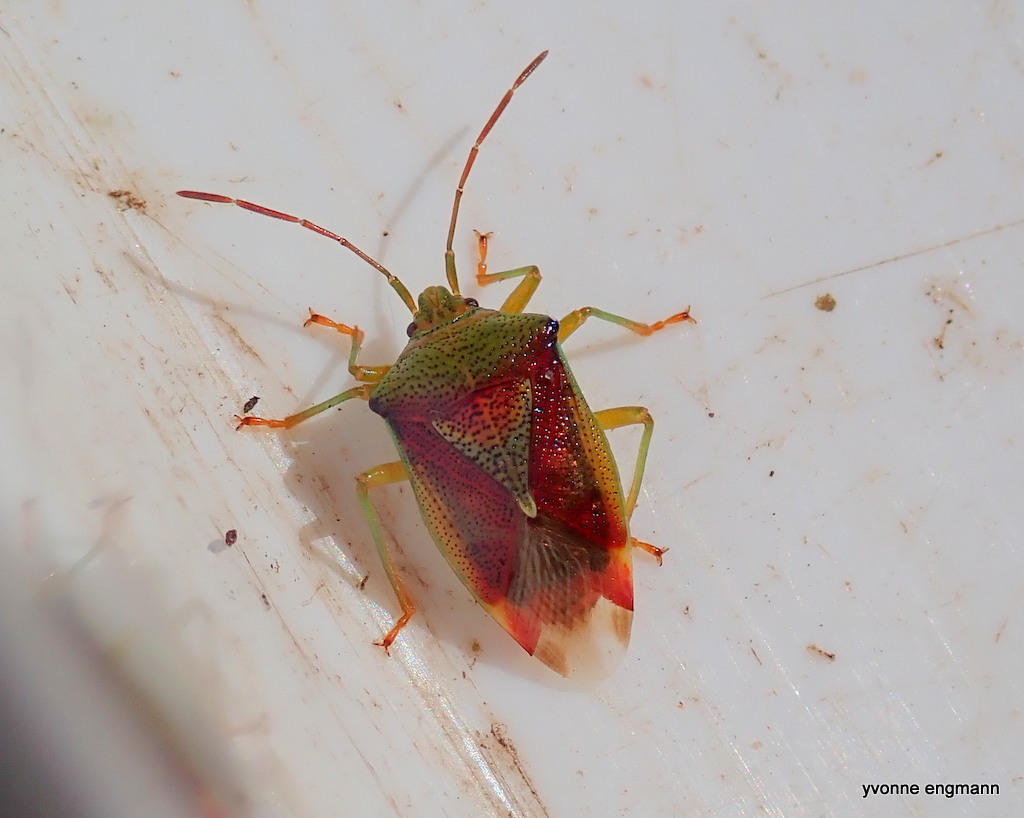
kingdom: Animalia
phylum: Arthropoda
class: Insecta
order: Hemiptera
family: Acanthosomatidae
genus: Elasmostethus
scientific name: Elasmostethus interstinctus
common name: Birch shieldbug
